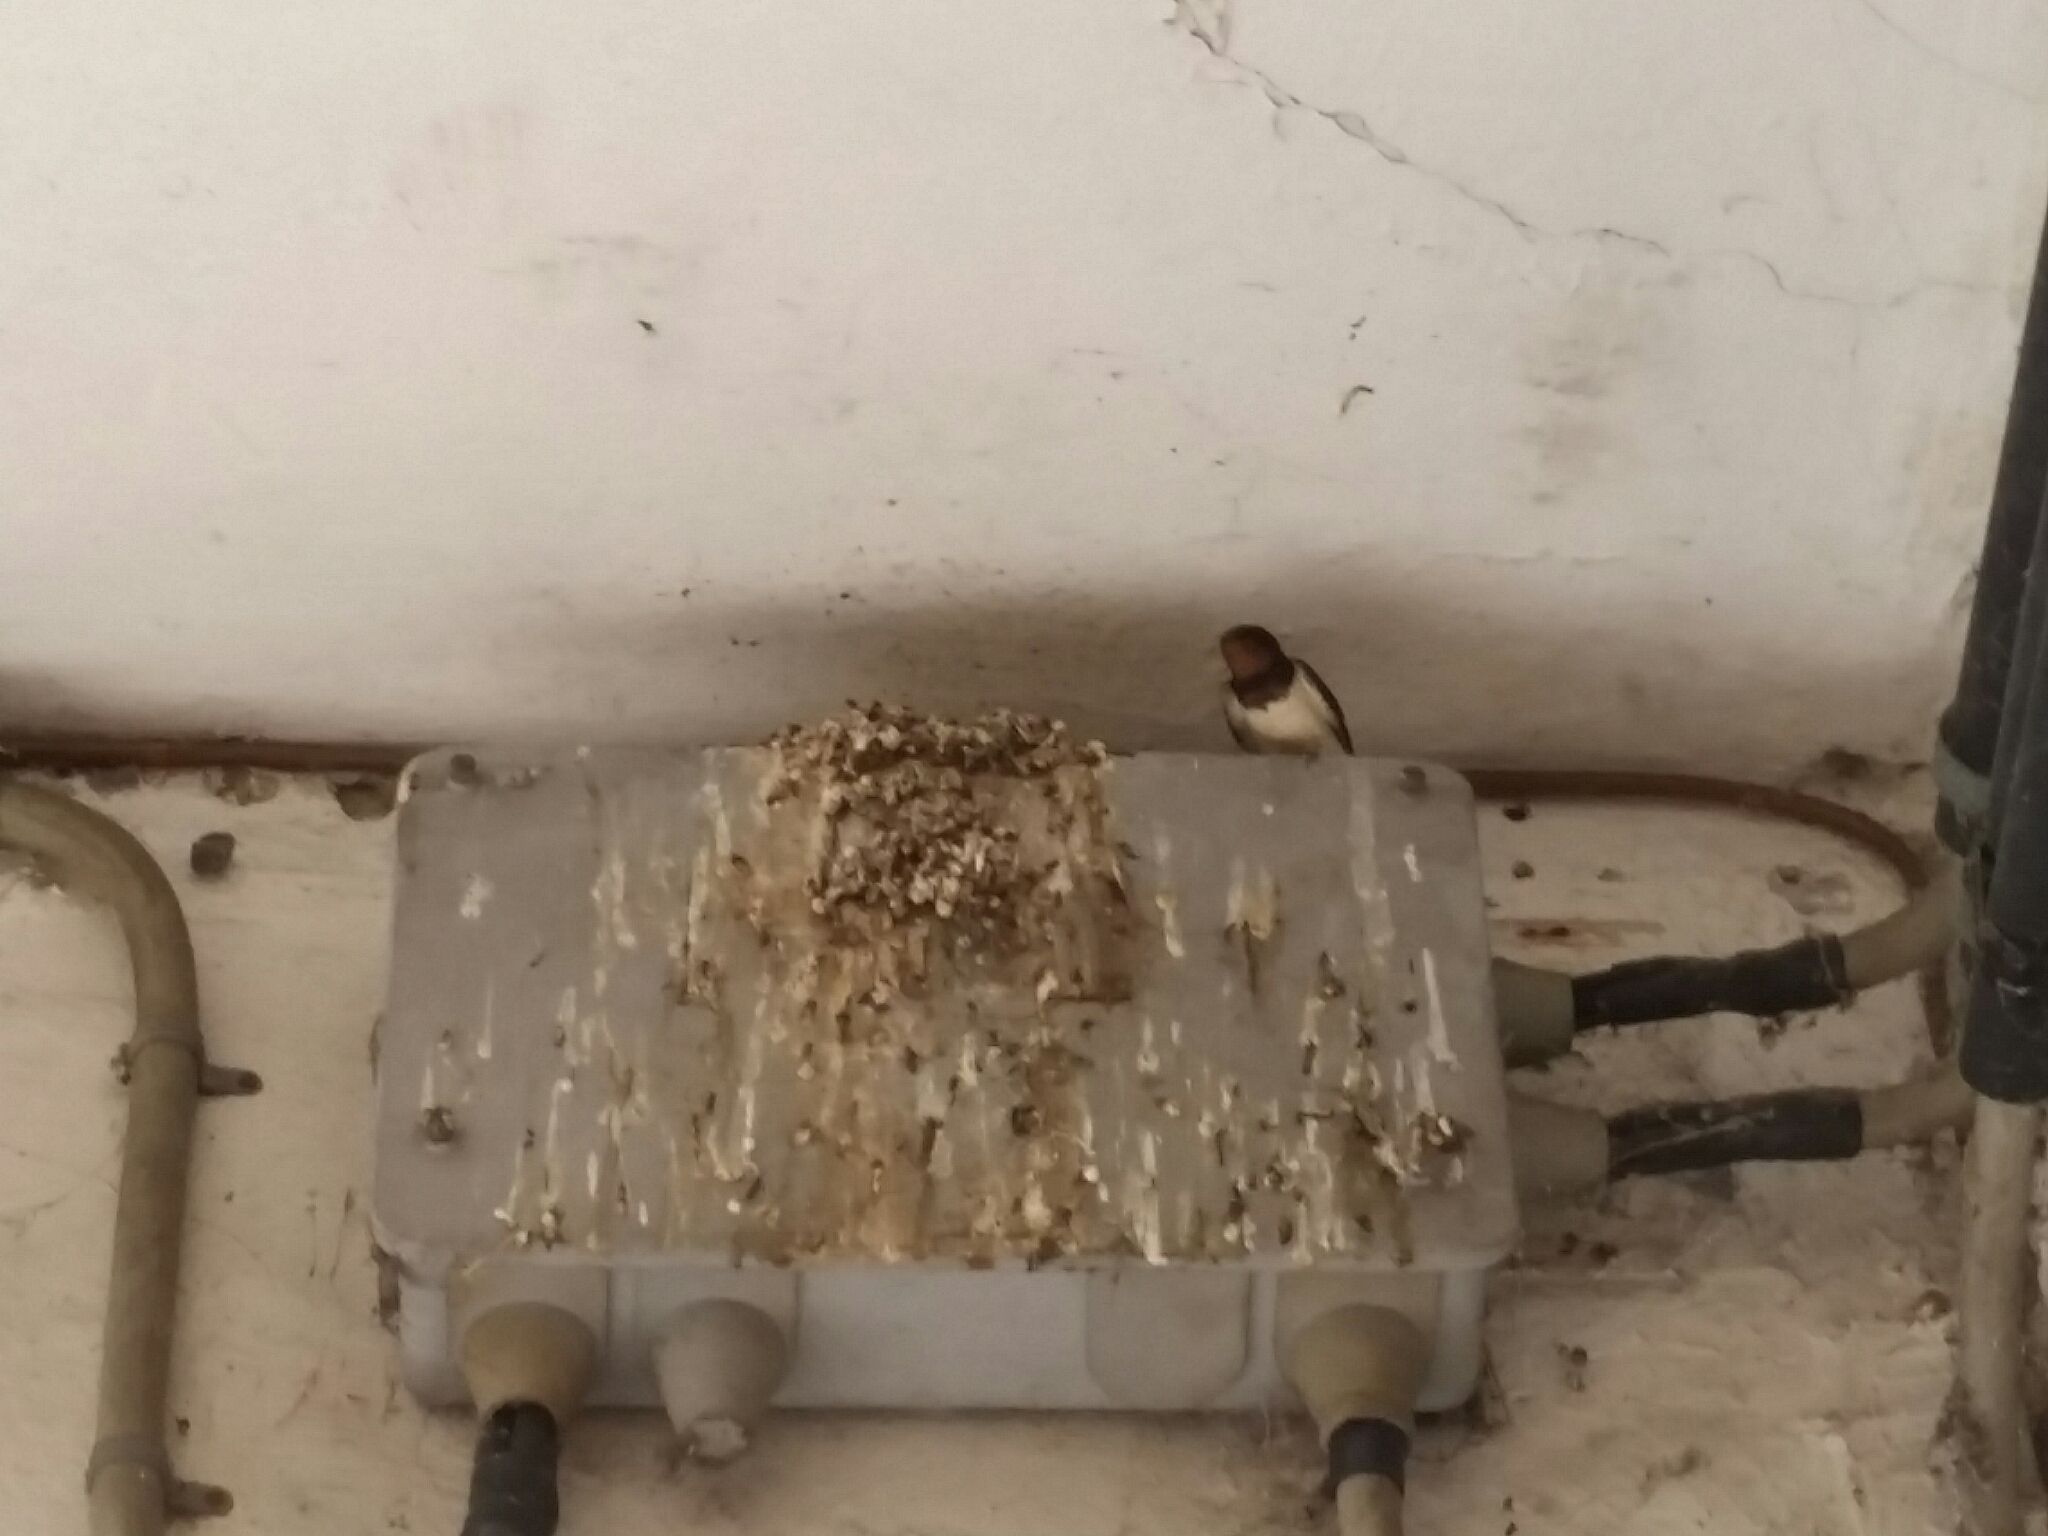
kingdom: Animalia
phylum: Chordata
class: Aves
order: Passeriformes
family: Hirundinidae
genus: Hirundo
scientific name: Hirundo rustica
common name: Barn swallow
